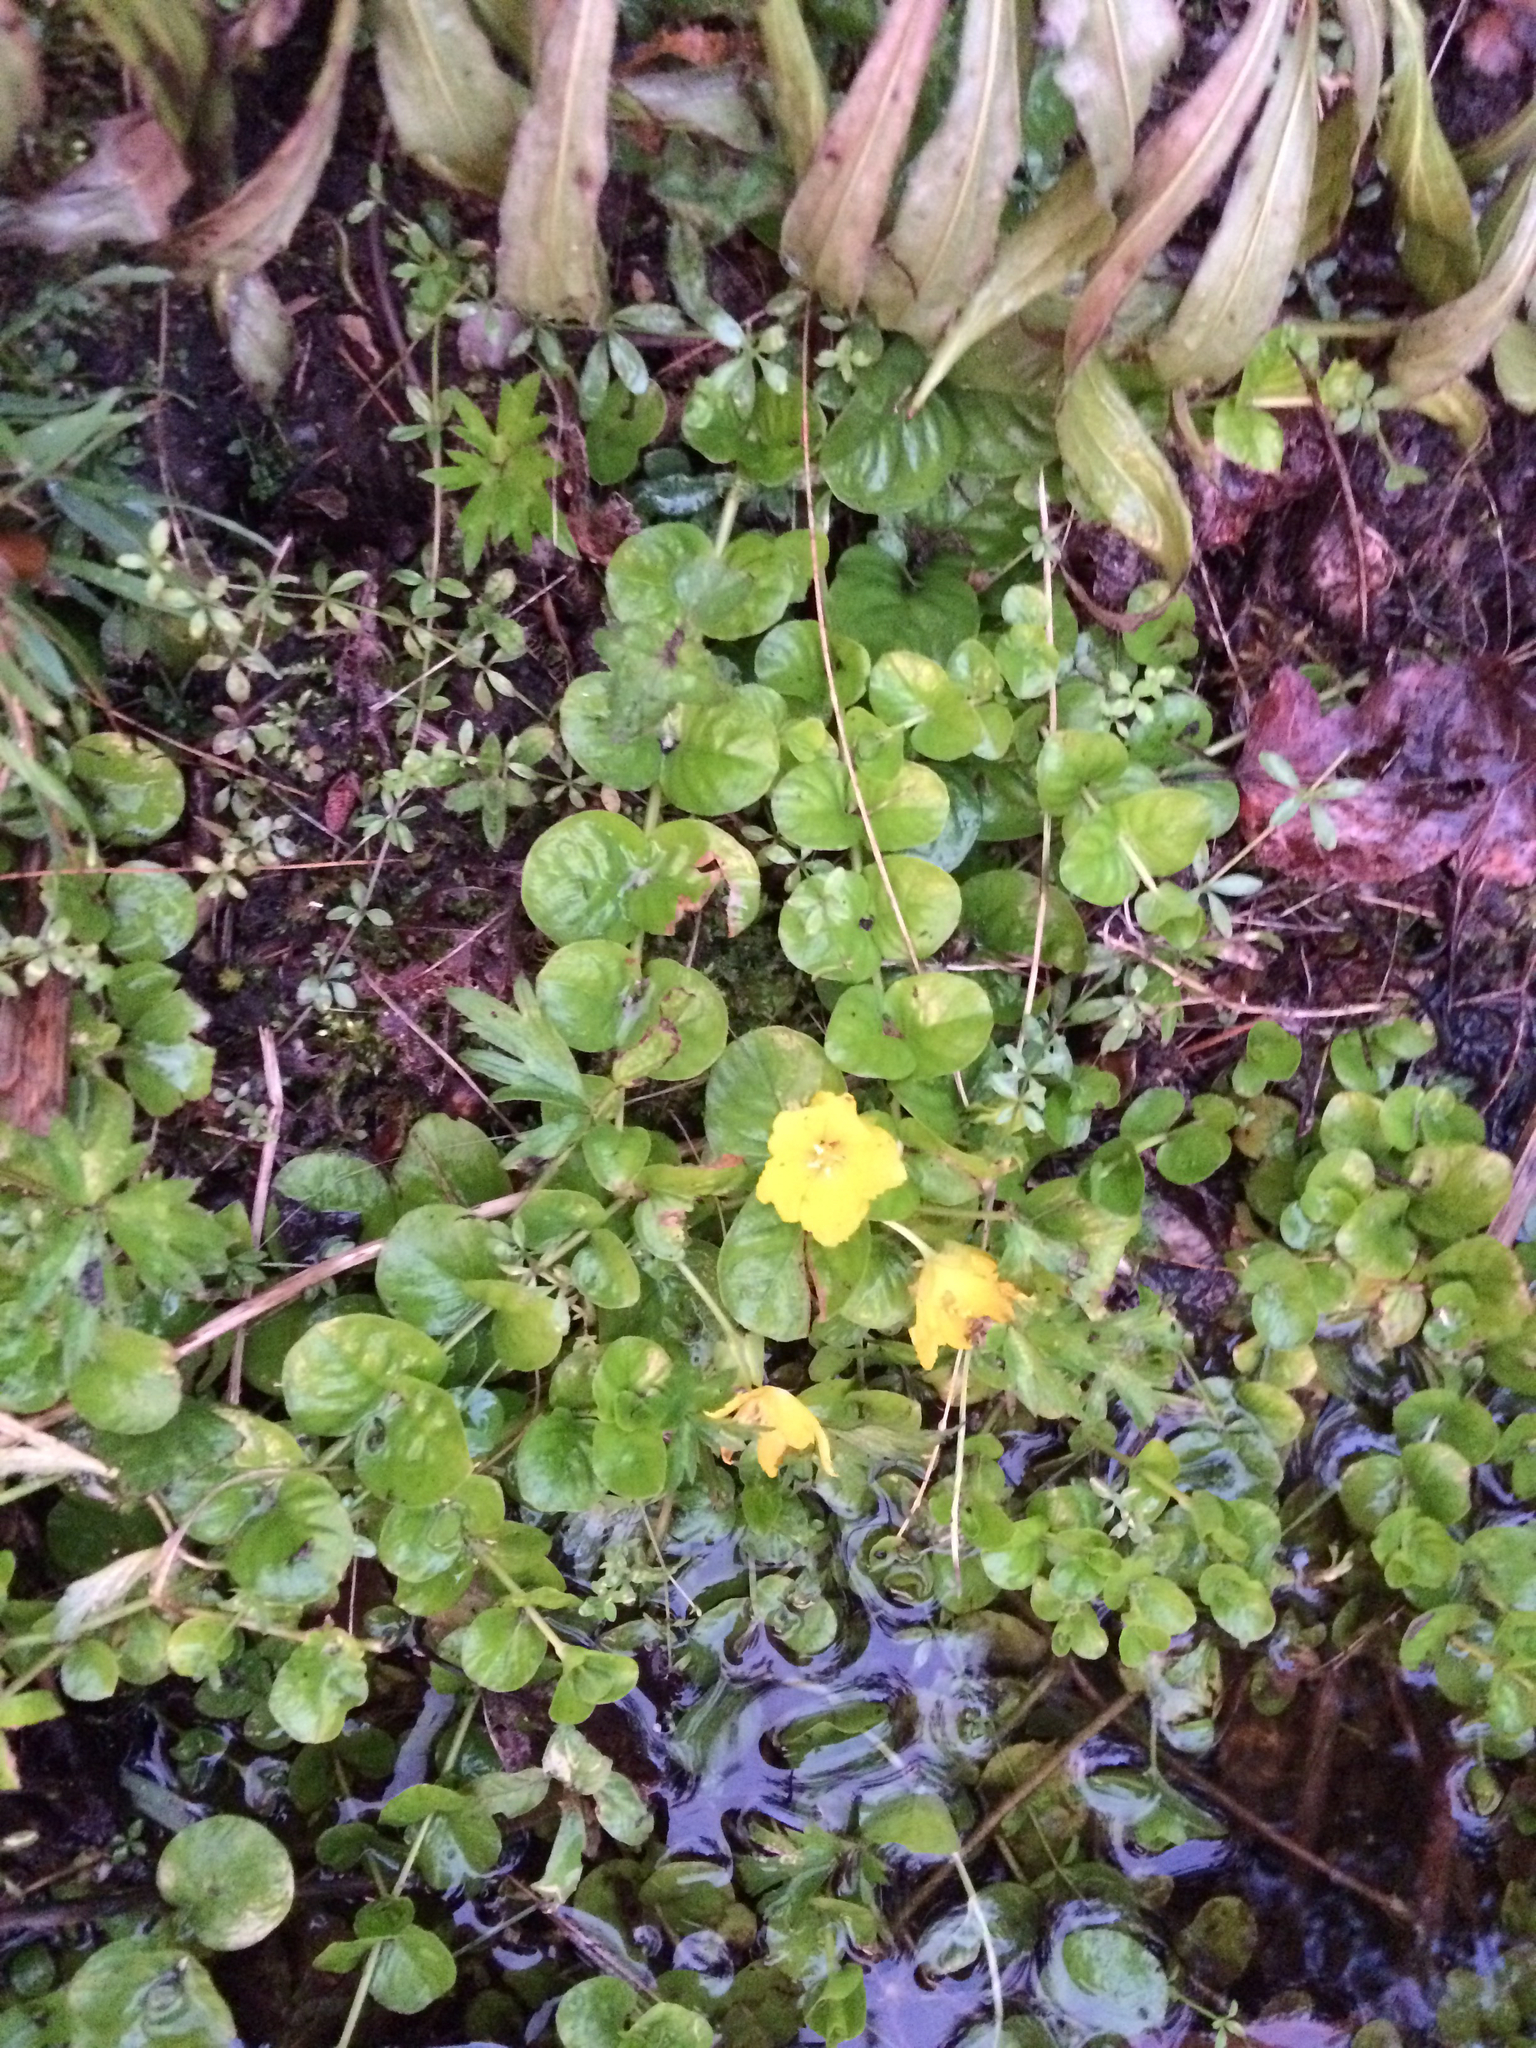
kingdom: Plantae
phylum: Tracheophyta
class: Magnoliopsida
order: Ericales
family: Primulaceae
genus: Lysimachia
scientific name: Lysimachia nummularia
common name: Moneywort
